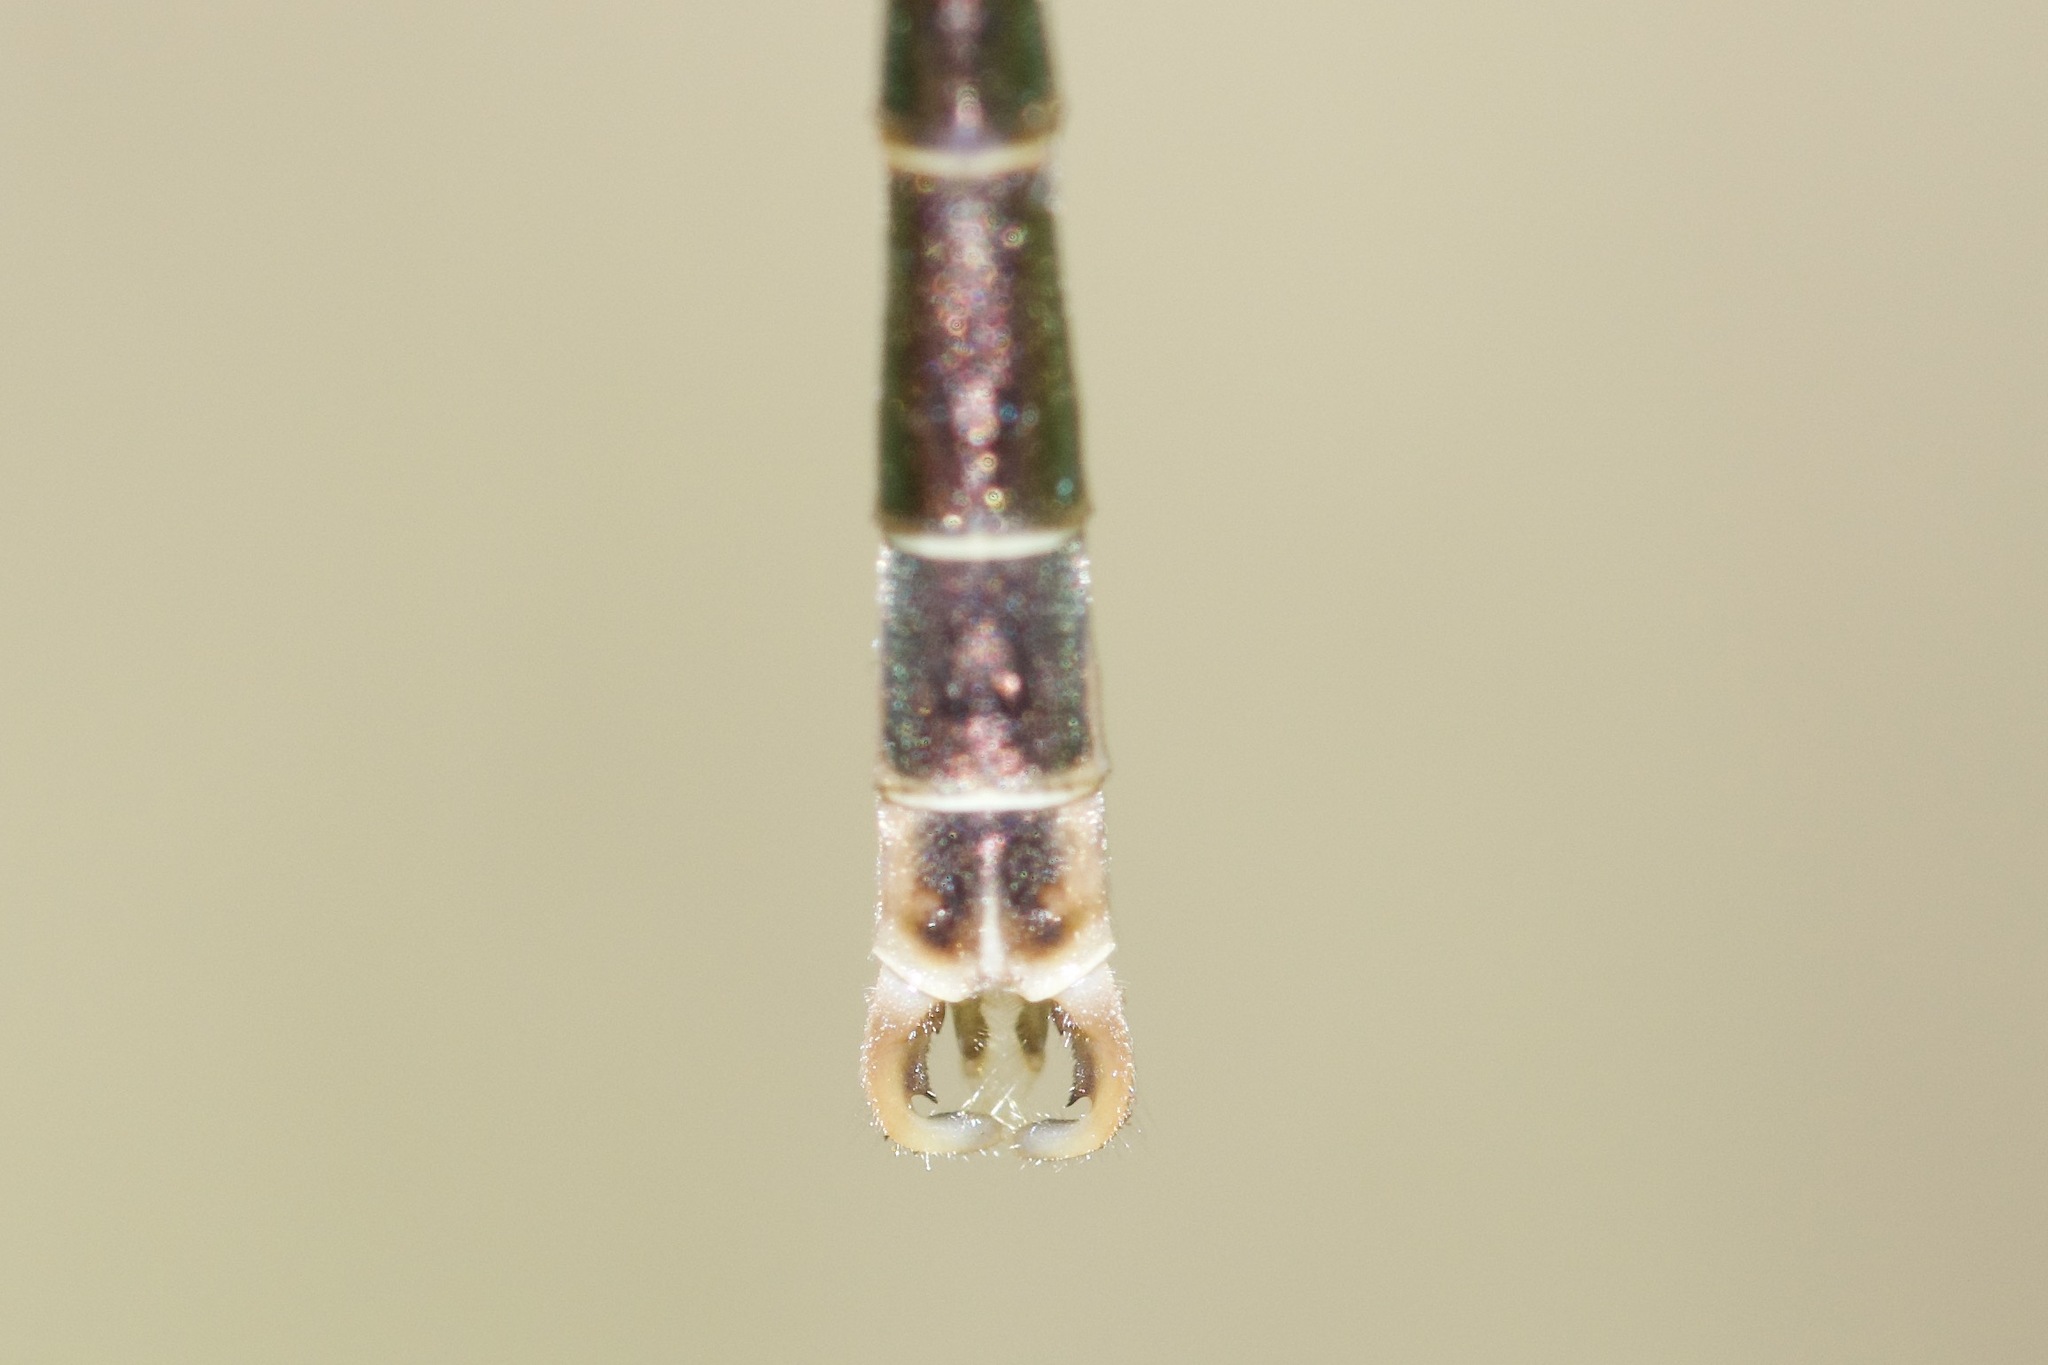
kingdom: Animalia
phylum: Arthropoda
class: Insecta
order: Odonata
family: Lestidae
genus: Lestes
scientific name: Lestes rectangularis
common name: Slender spreadwing
